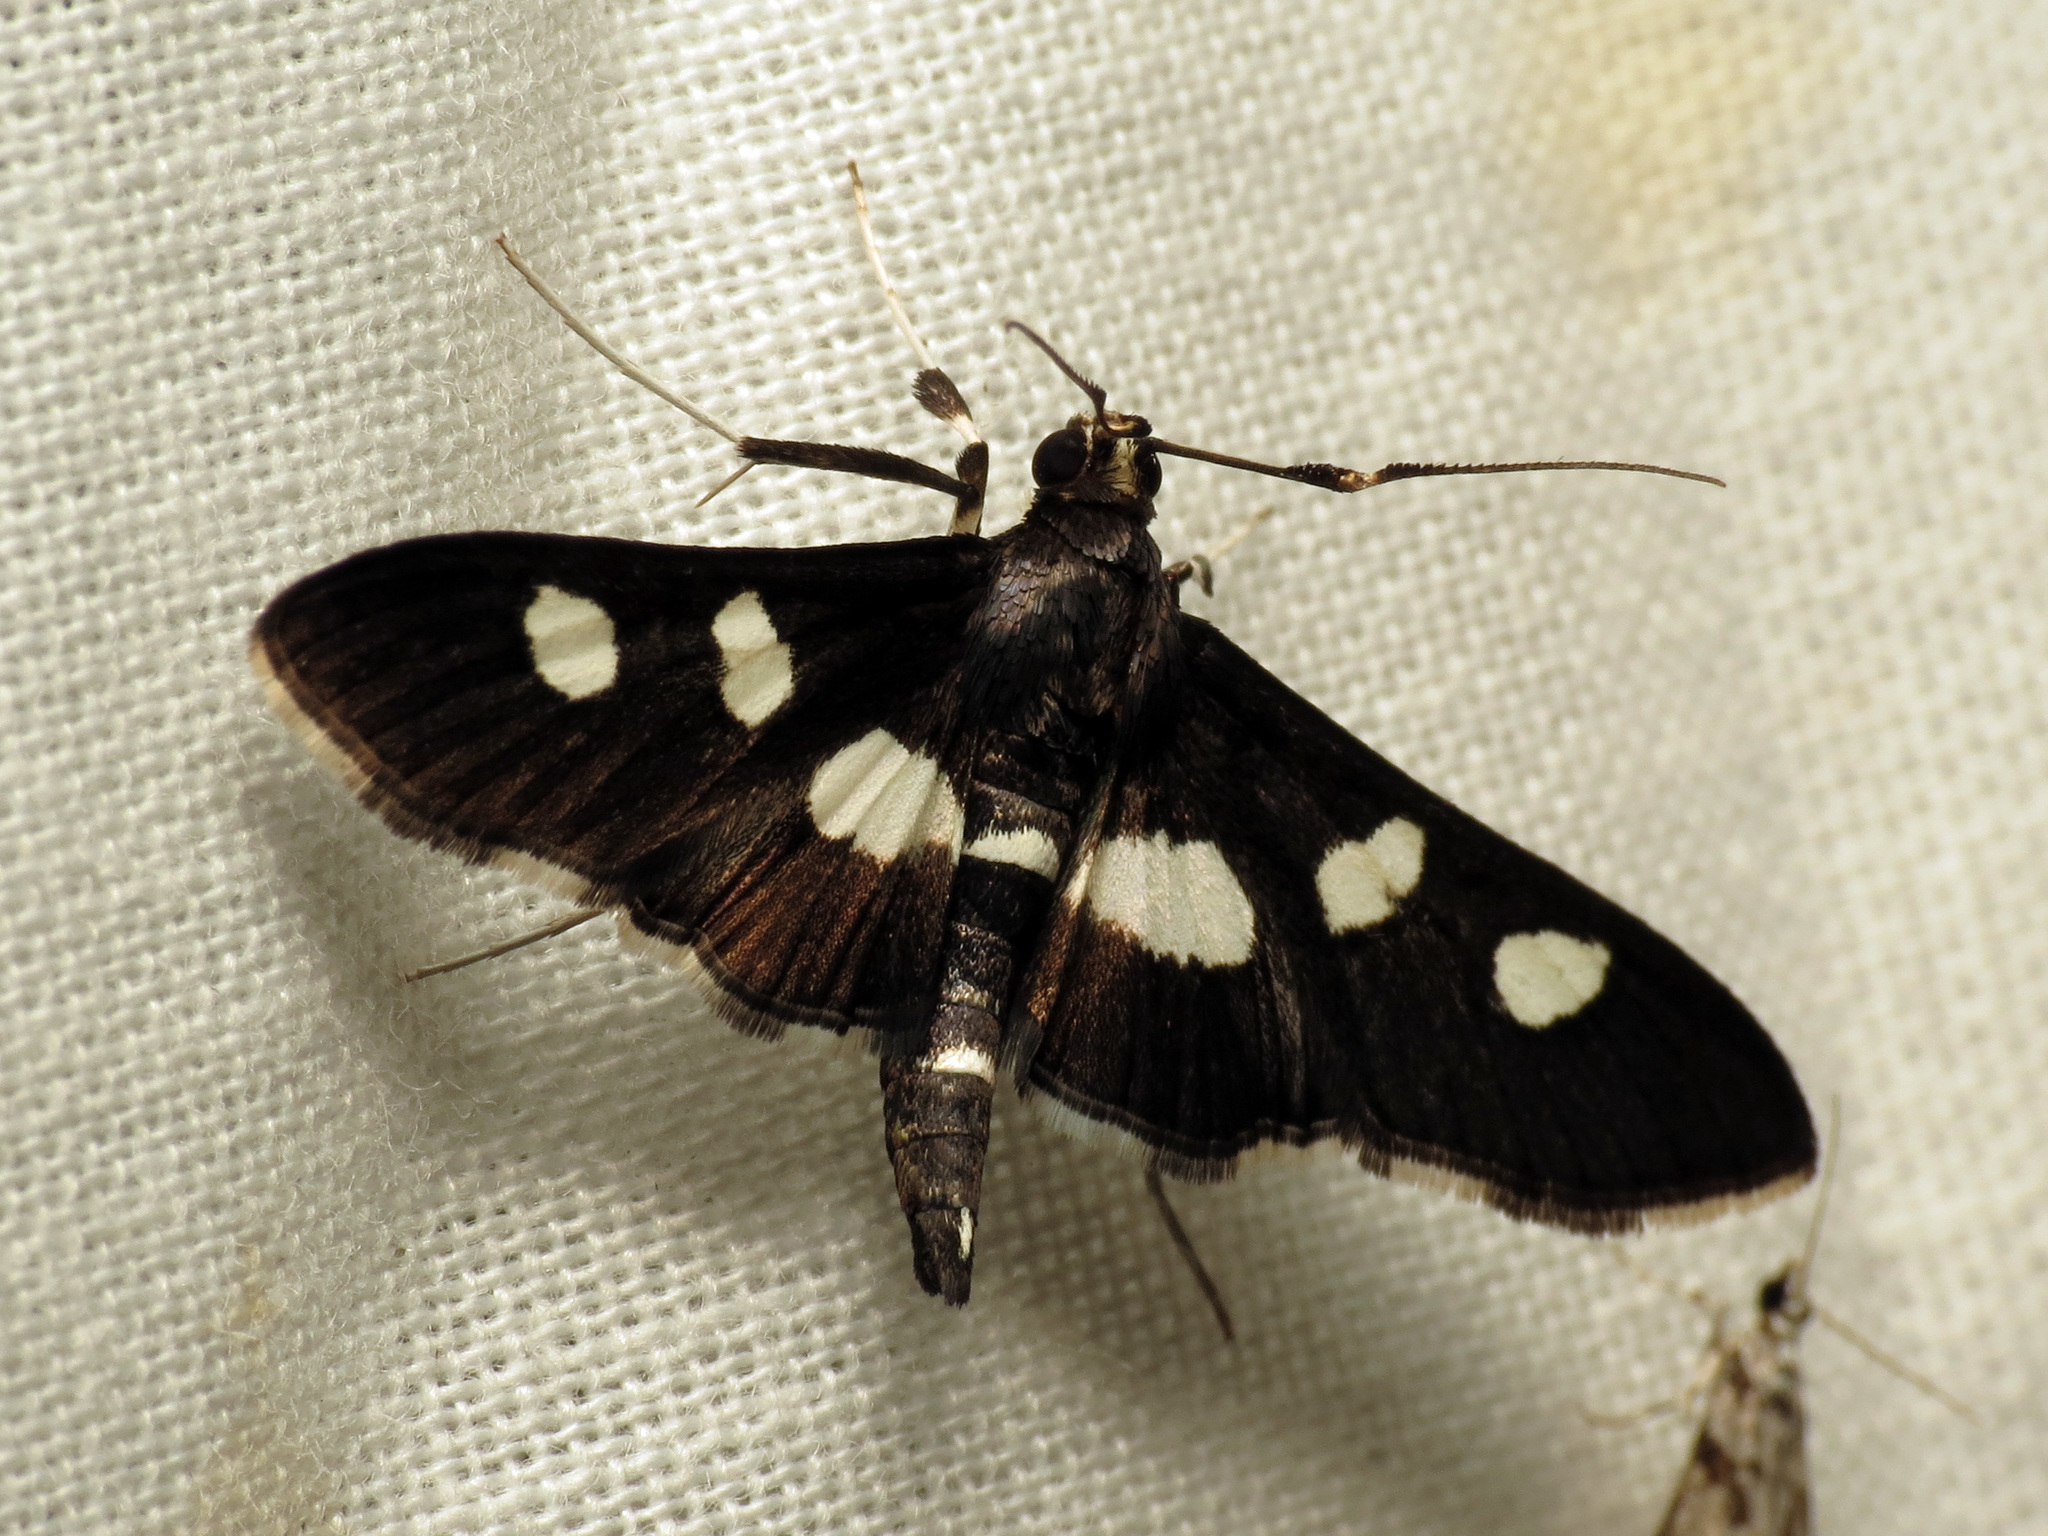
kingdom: Animalia
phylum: Arthropoda
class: Insecta
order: Lepidoptera
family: Crambidae
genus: Desmia
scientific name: Desmia funeralis
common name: Grape leaf folder moth
